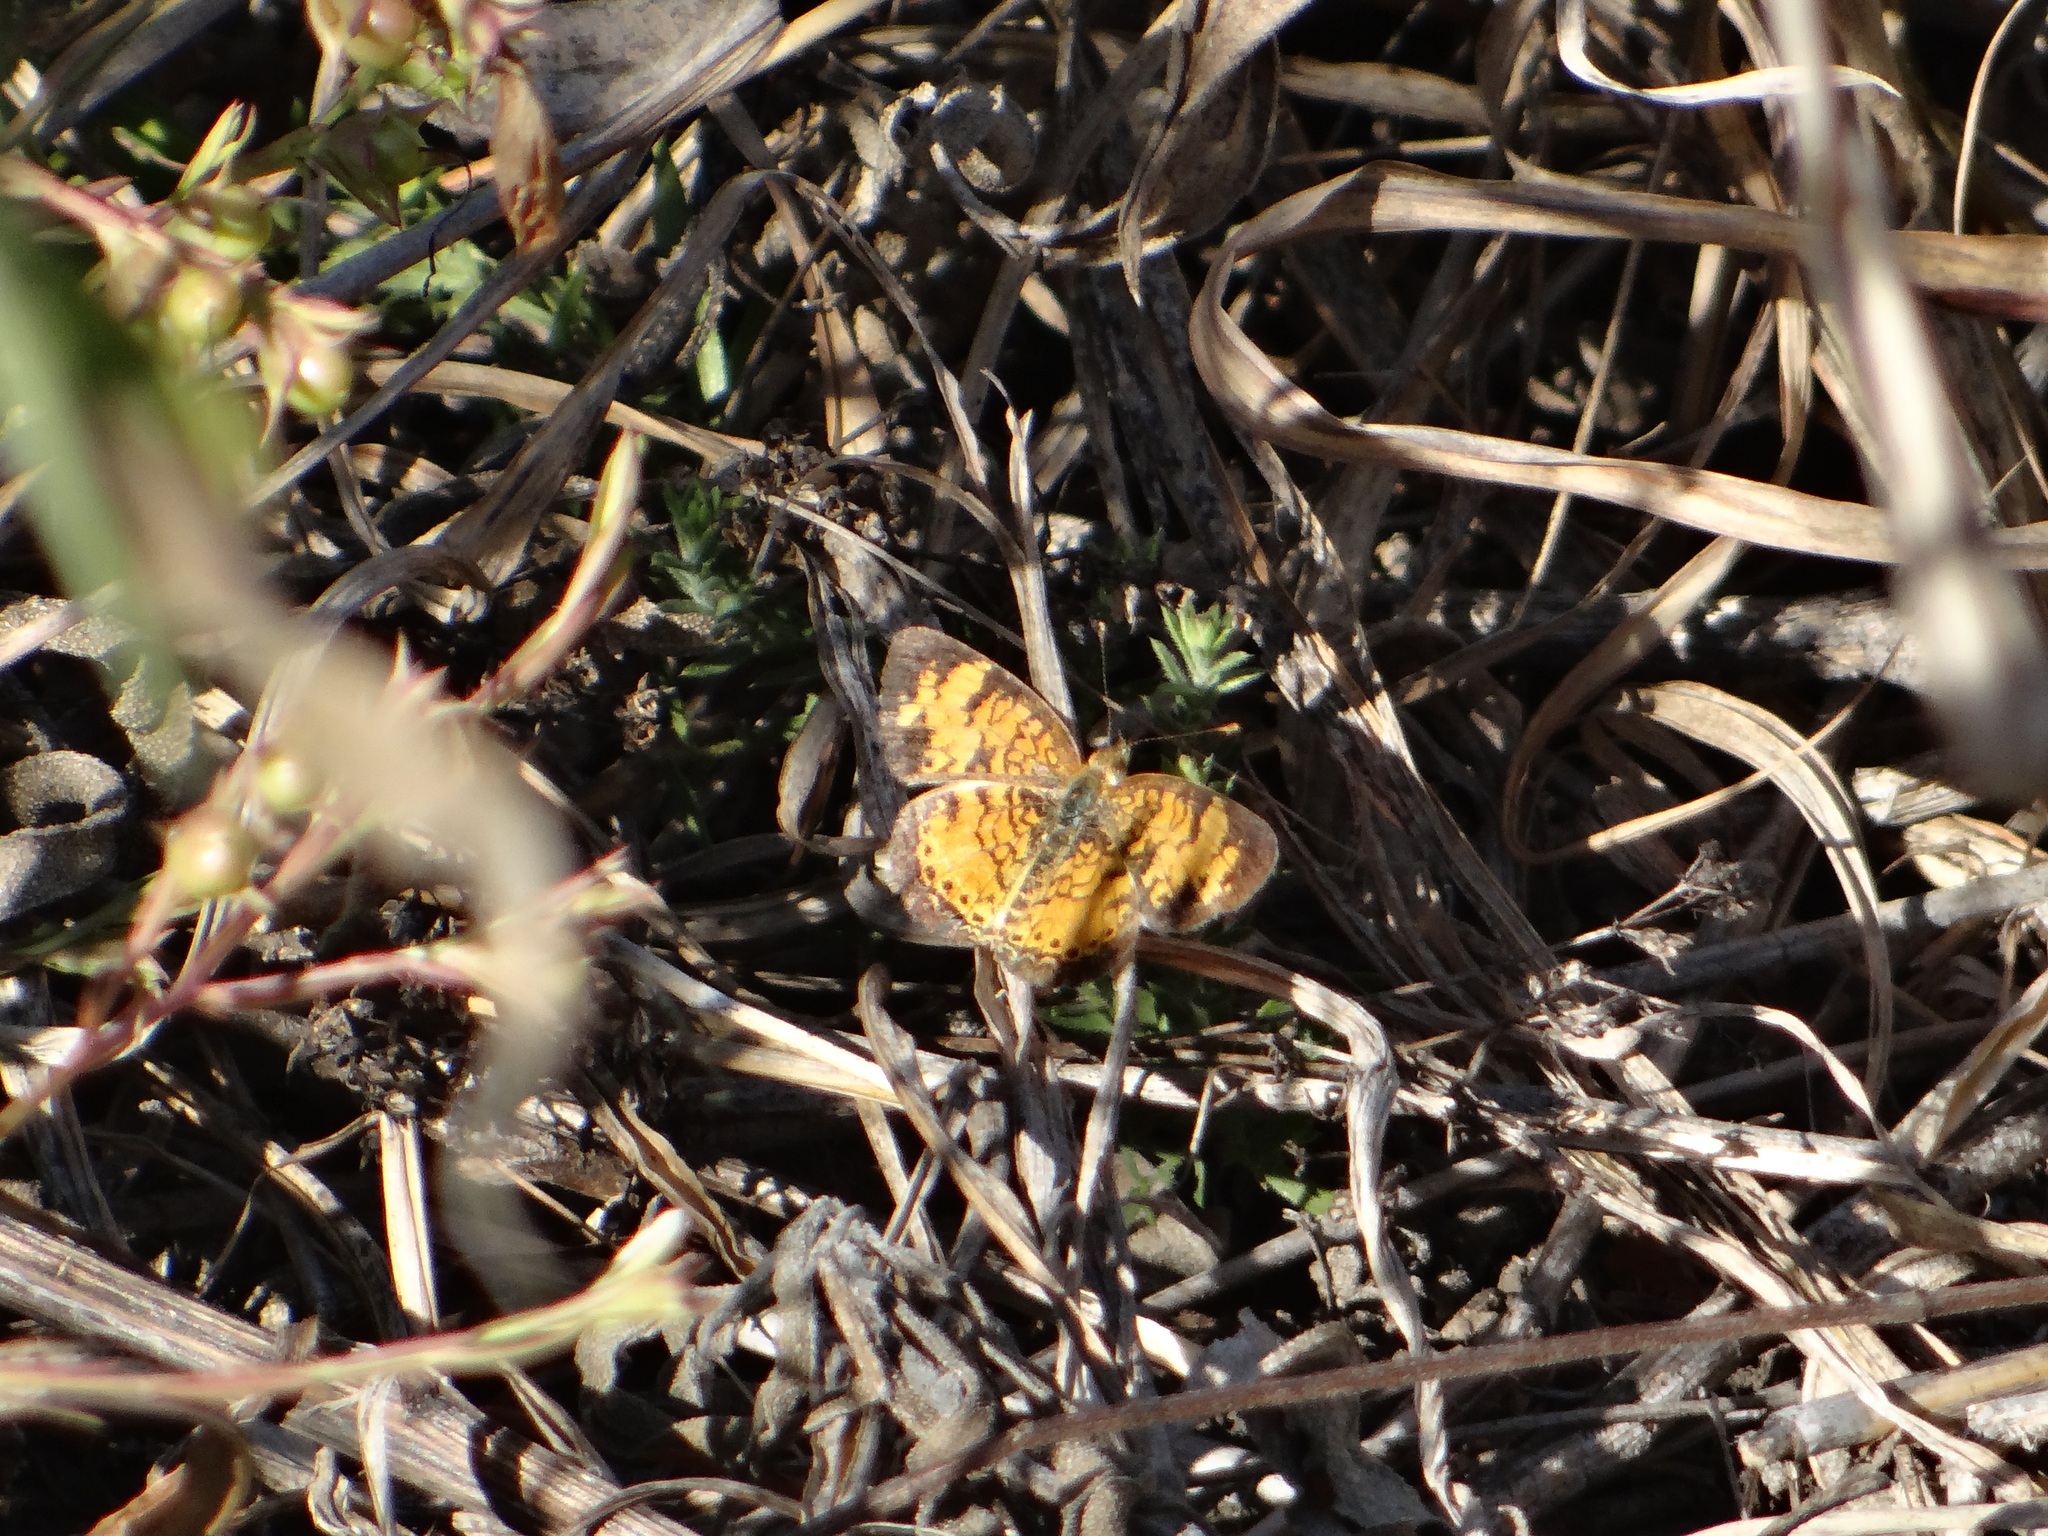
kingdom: Animalia
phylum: Arthropoda
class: Insecta
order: Lepidoptera
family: Nymphalidae
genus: Phyciodes
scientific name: Phyciodes tharos
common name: Pearl crescent
